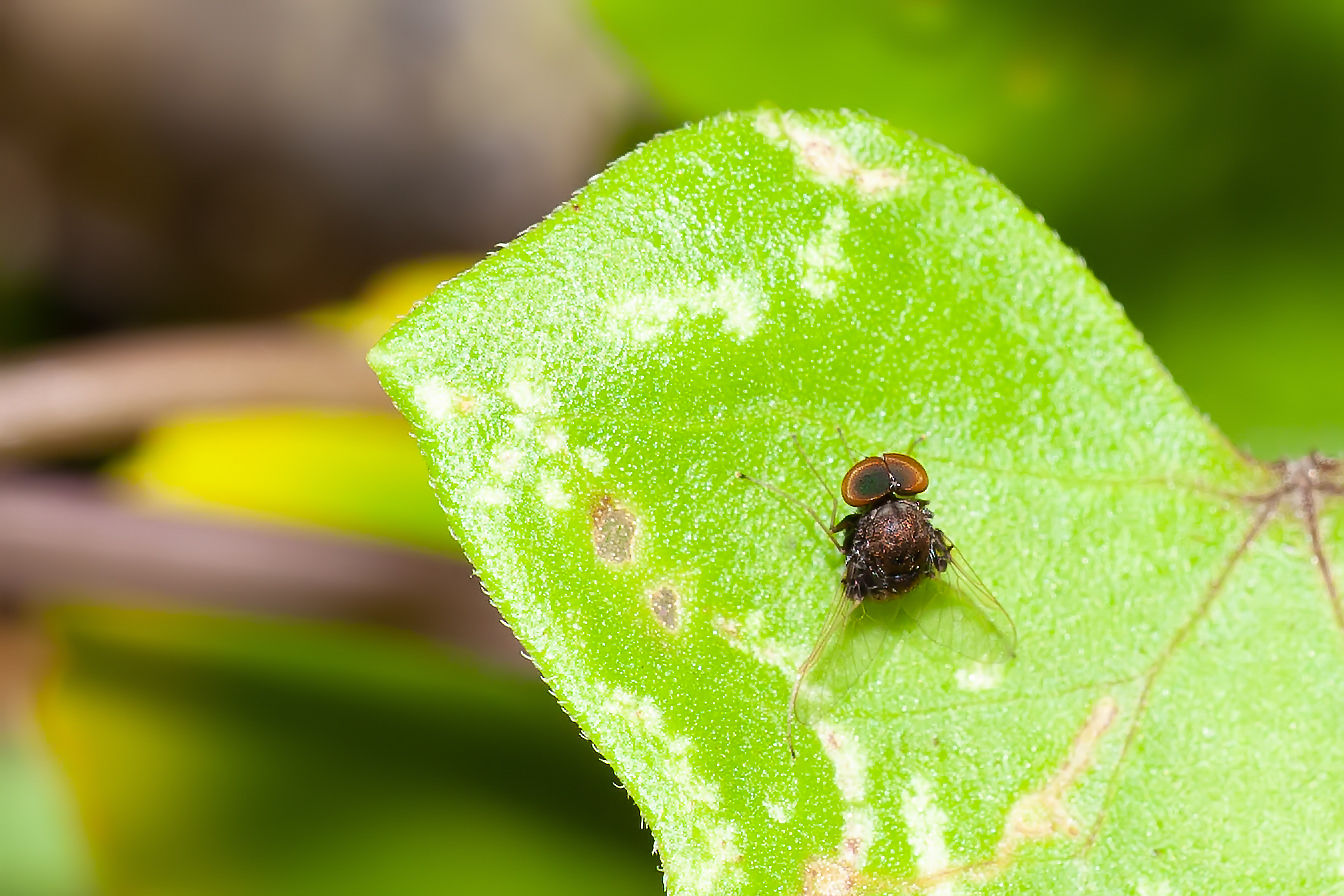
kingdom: Animalia
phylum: Arthropoda
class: Insecta
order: Diptera
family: Rhagionidae
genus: Chrysopilus
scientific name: Chrysopilus basilaris
